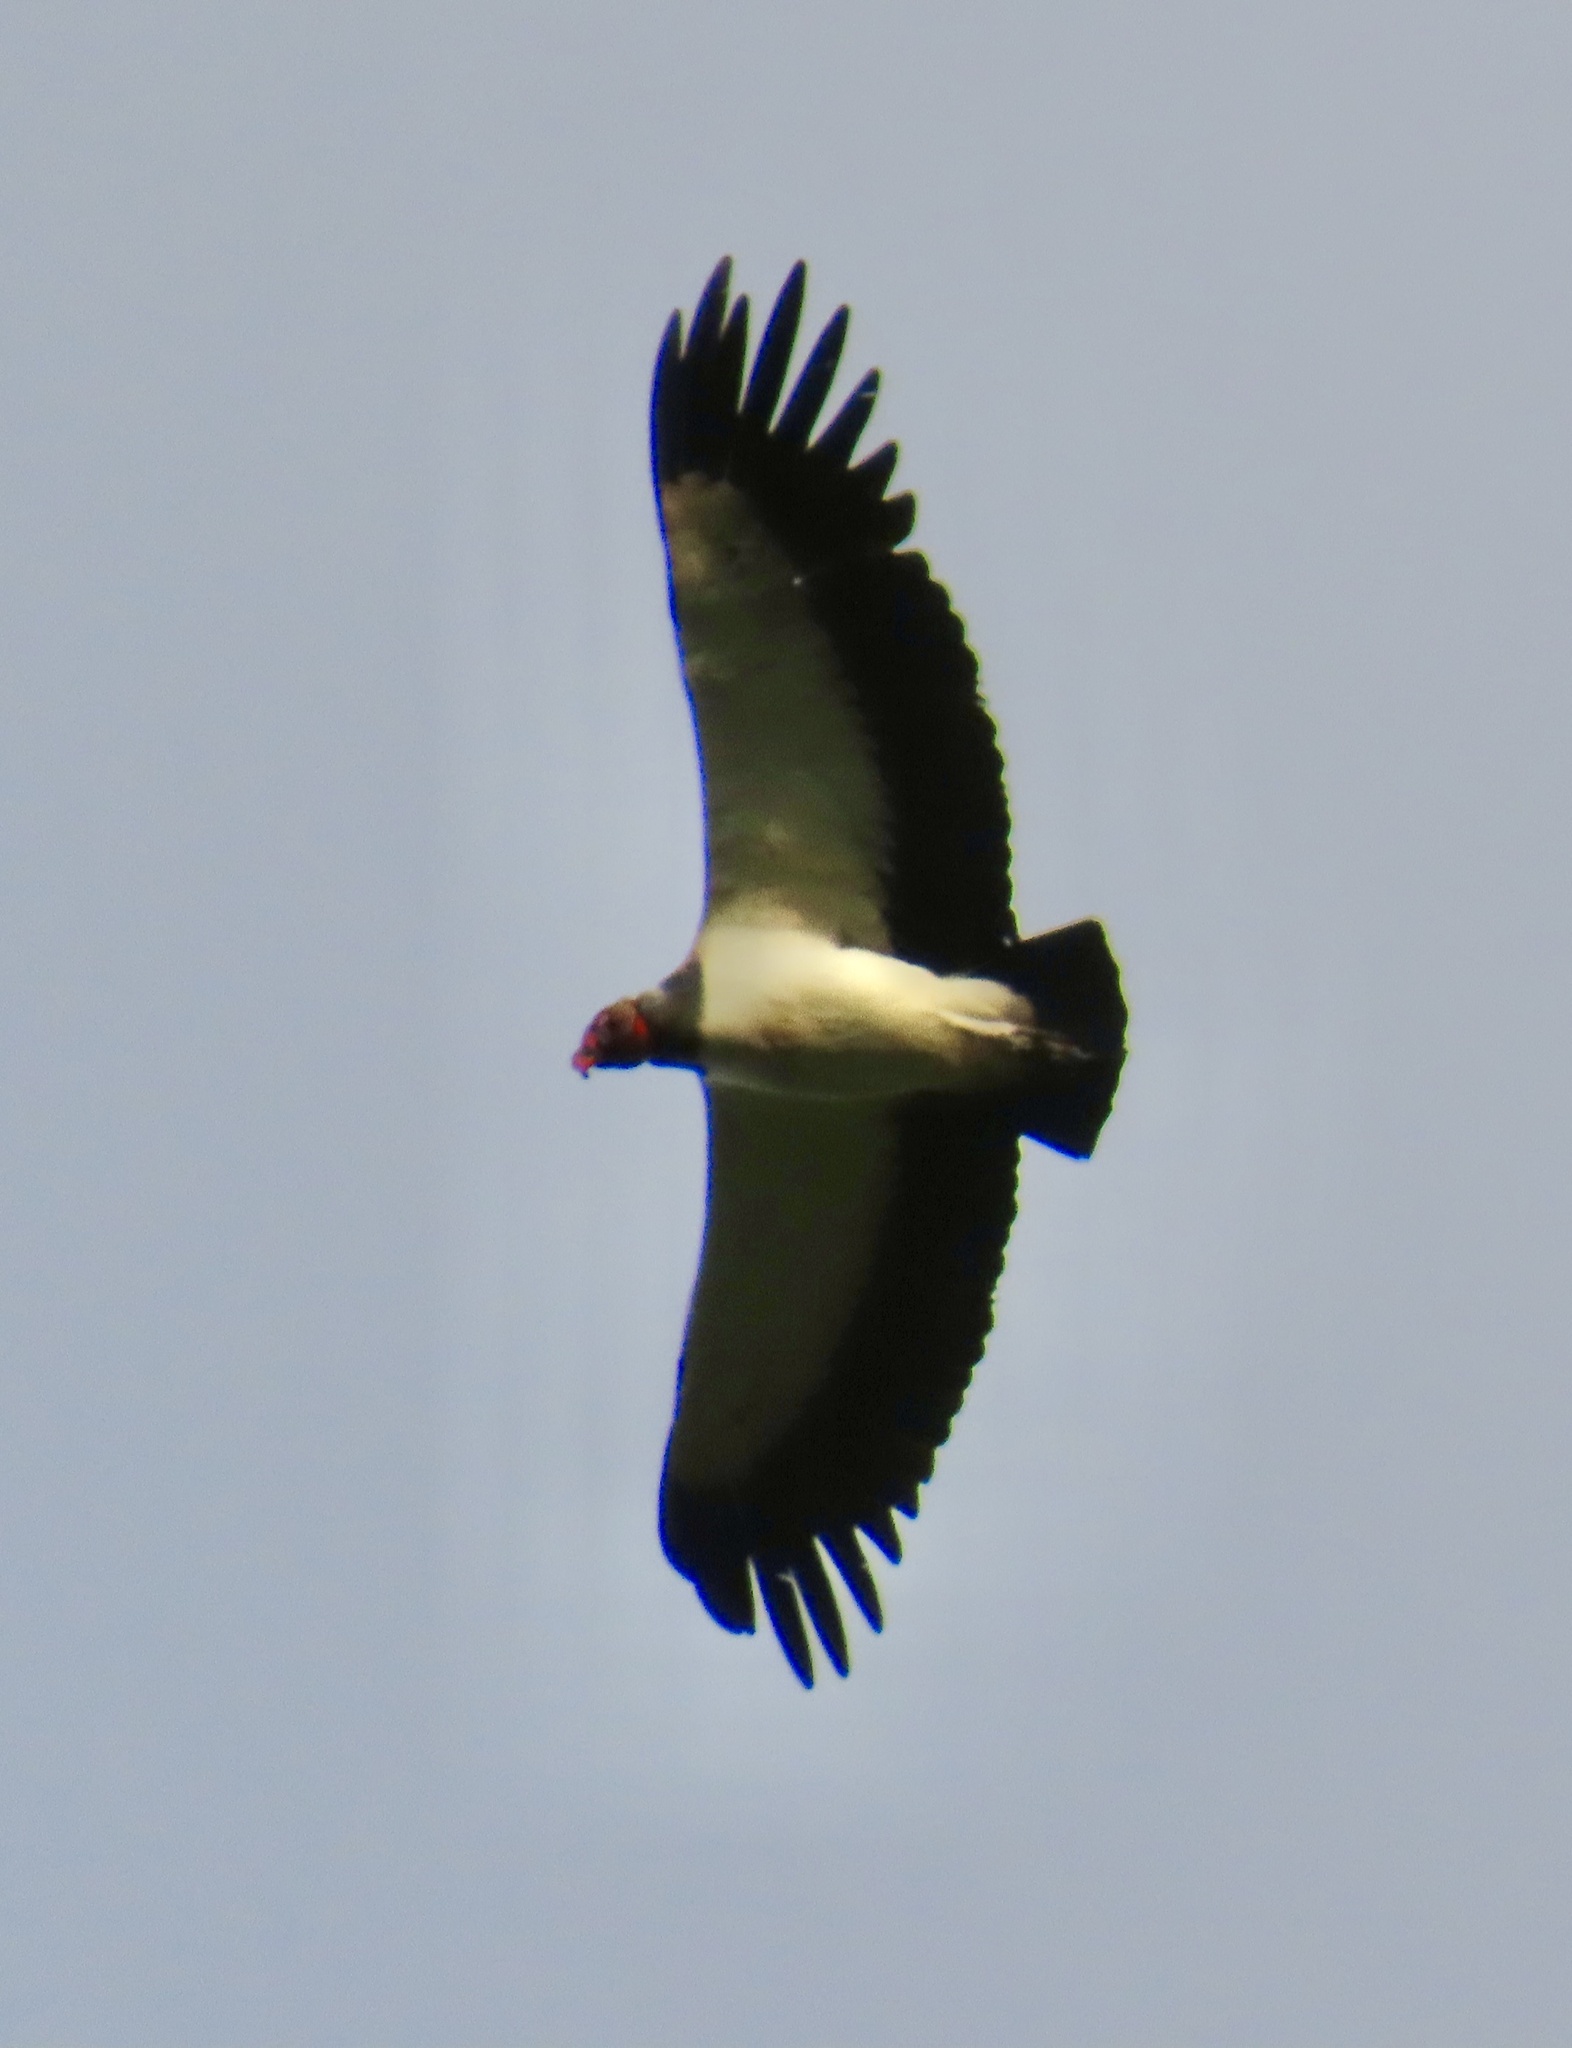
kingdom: Animalia
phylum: Chordata
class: Aves
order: Accipitriformes
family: Cathartidae
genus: Sarcoramphus
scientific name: Sarcoramphus papa
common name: King vulture
